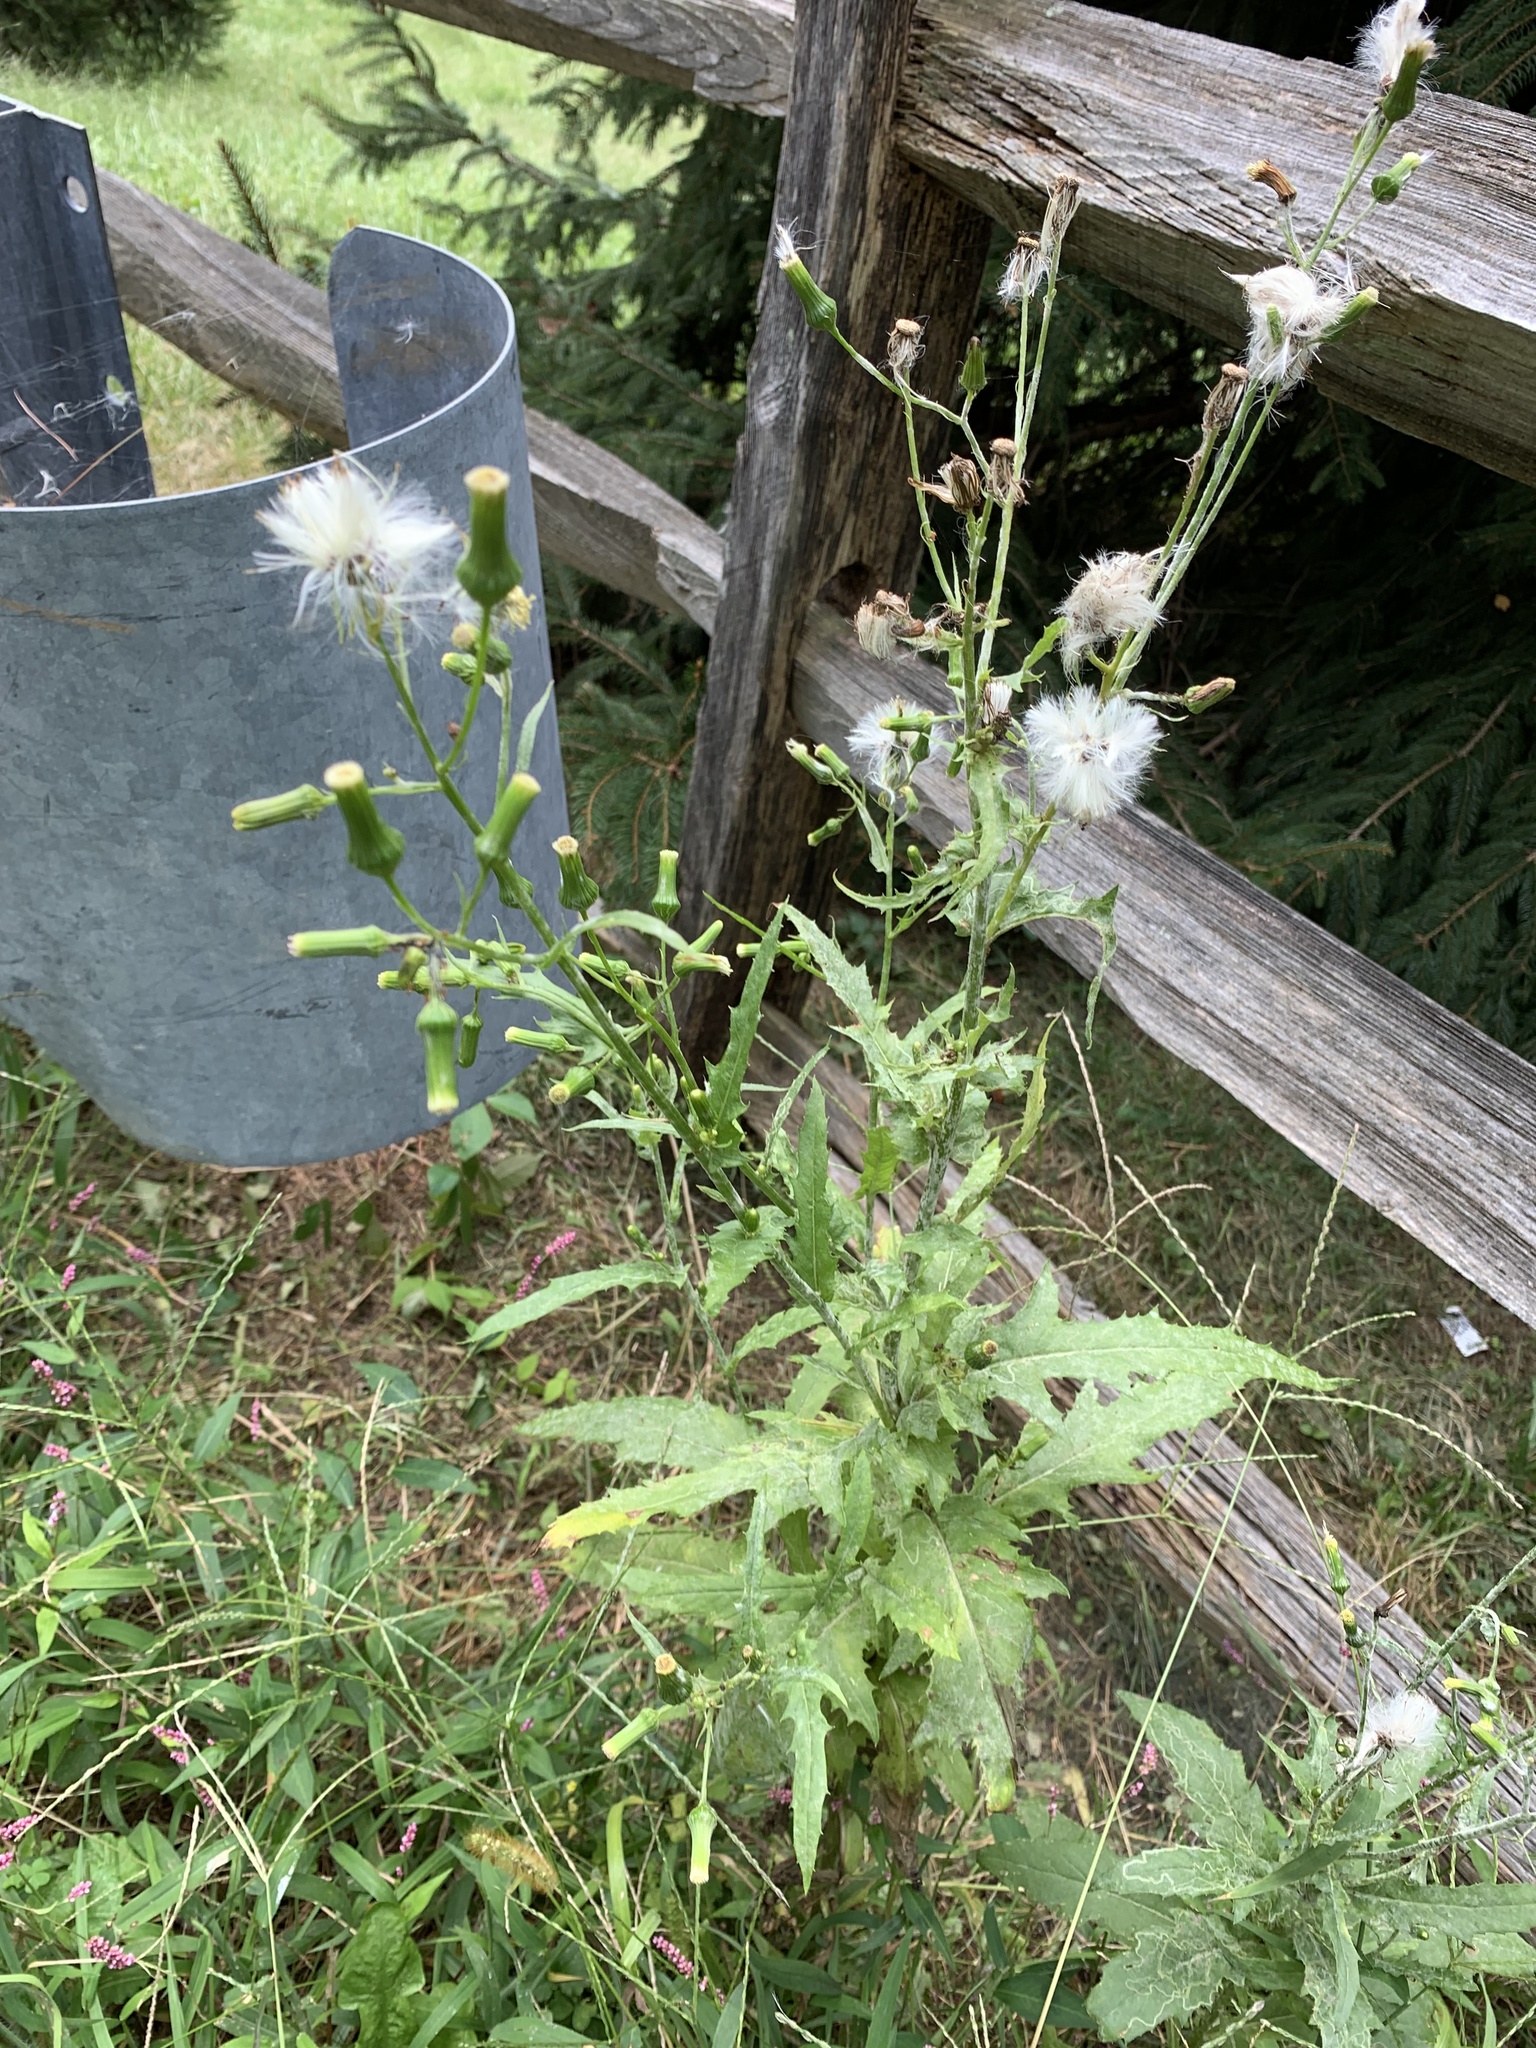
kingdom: Plantae
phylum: Tracheophyta
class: Magnoliopsida
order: Asterales
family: Asteraceae
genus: Erechtites
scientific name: Erechtites hieraciifolius
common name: American burnweed
